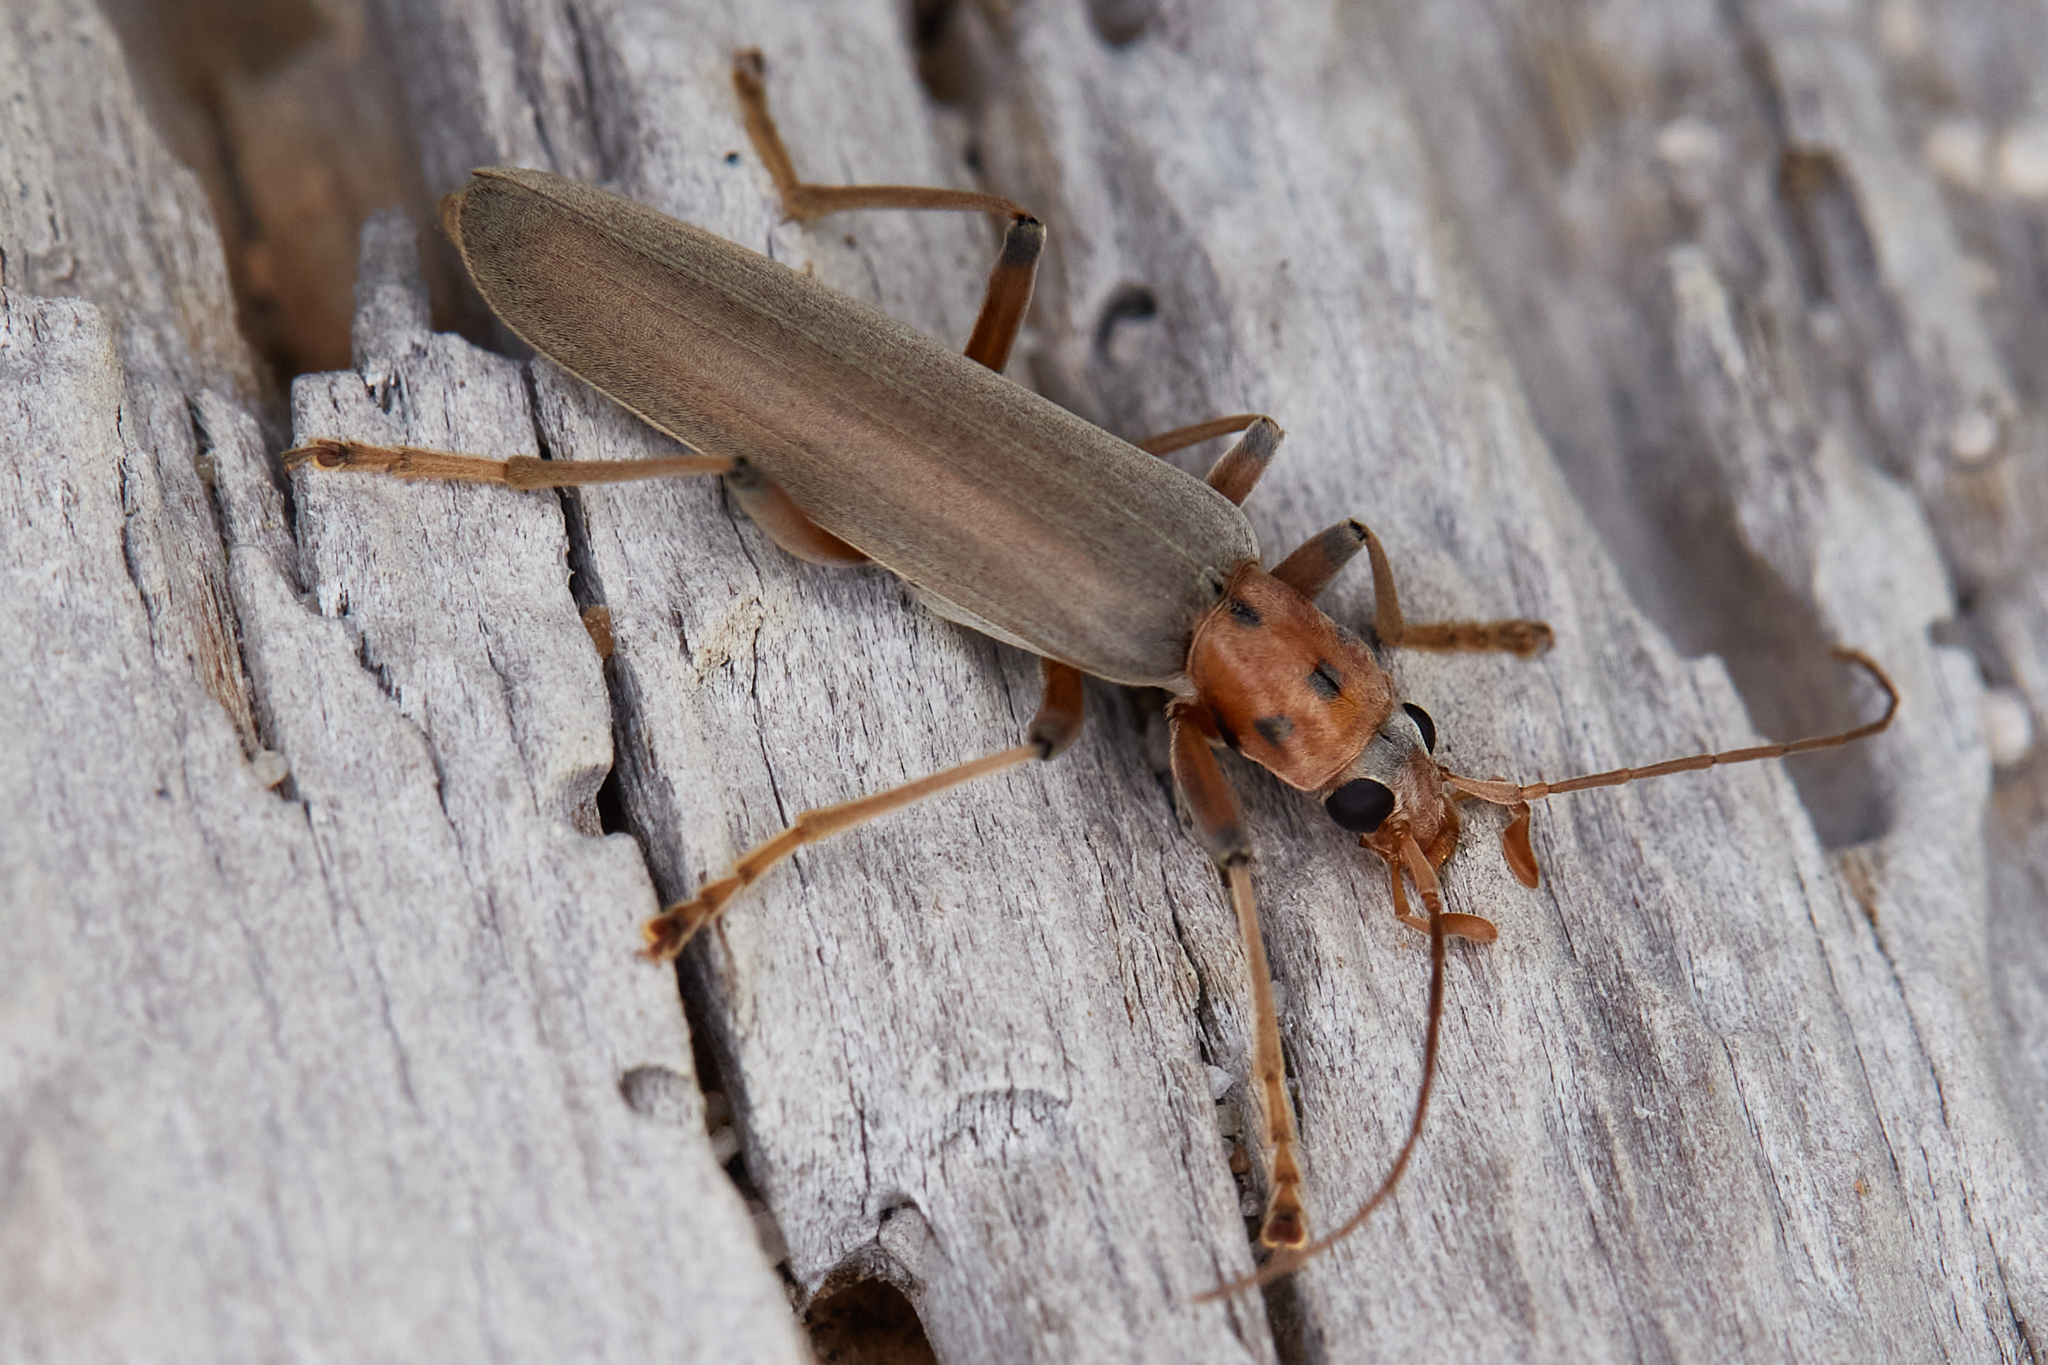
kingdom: Animalia
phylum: Arthropoda
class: Insecta
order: Coleoptera
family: Oedemeridae
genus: Copidita
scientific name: Copidita quadrimaculata
